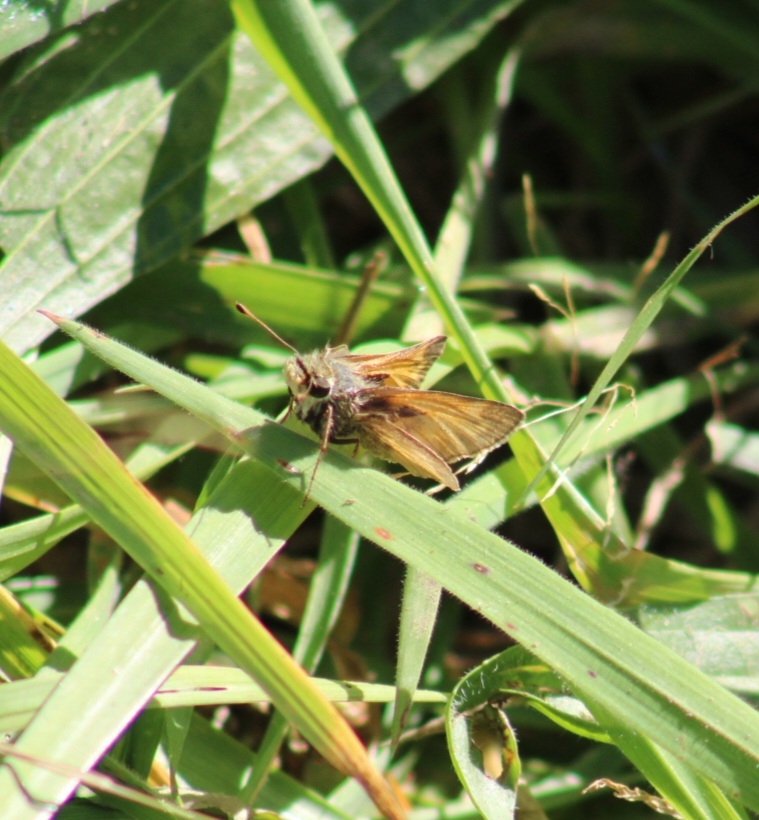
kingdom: Animalia
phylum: Arthropoda
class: Insecta
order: Lepidoptera
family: Hesperiidae
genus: Atalopedes
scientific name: Atalopedes
